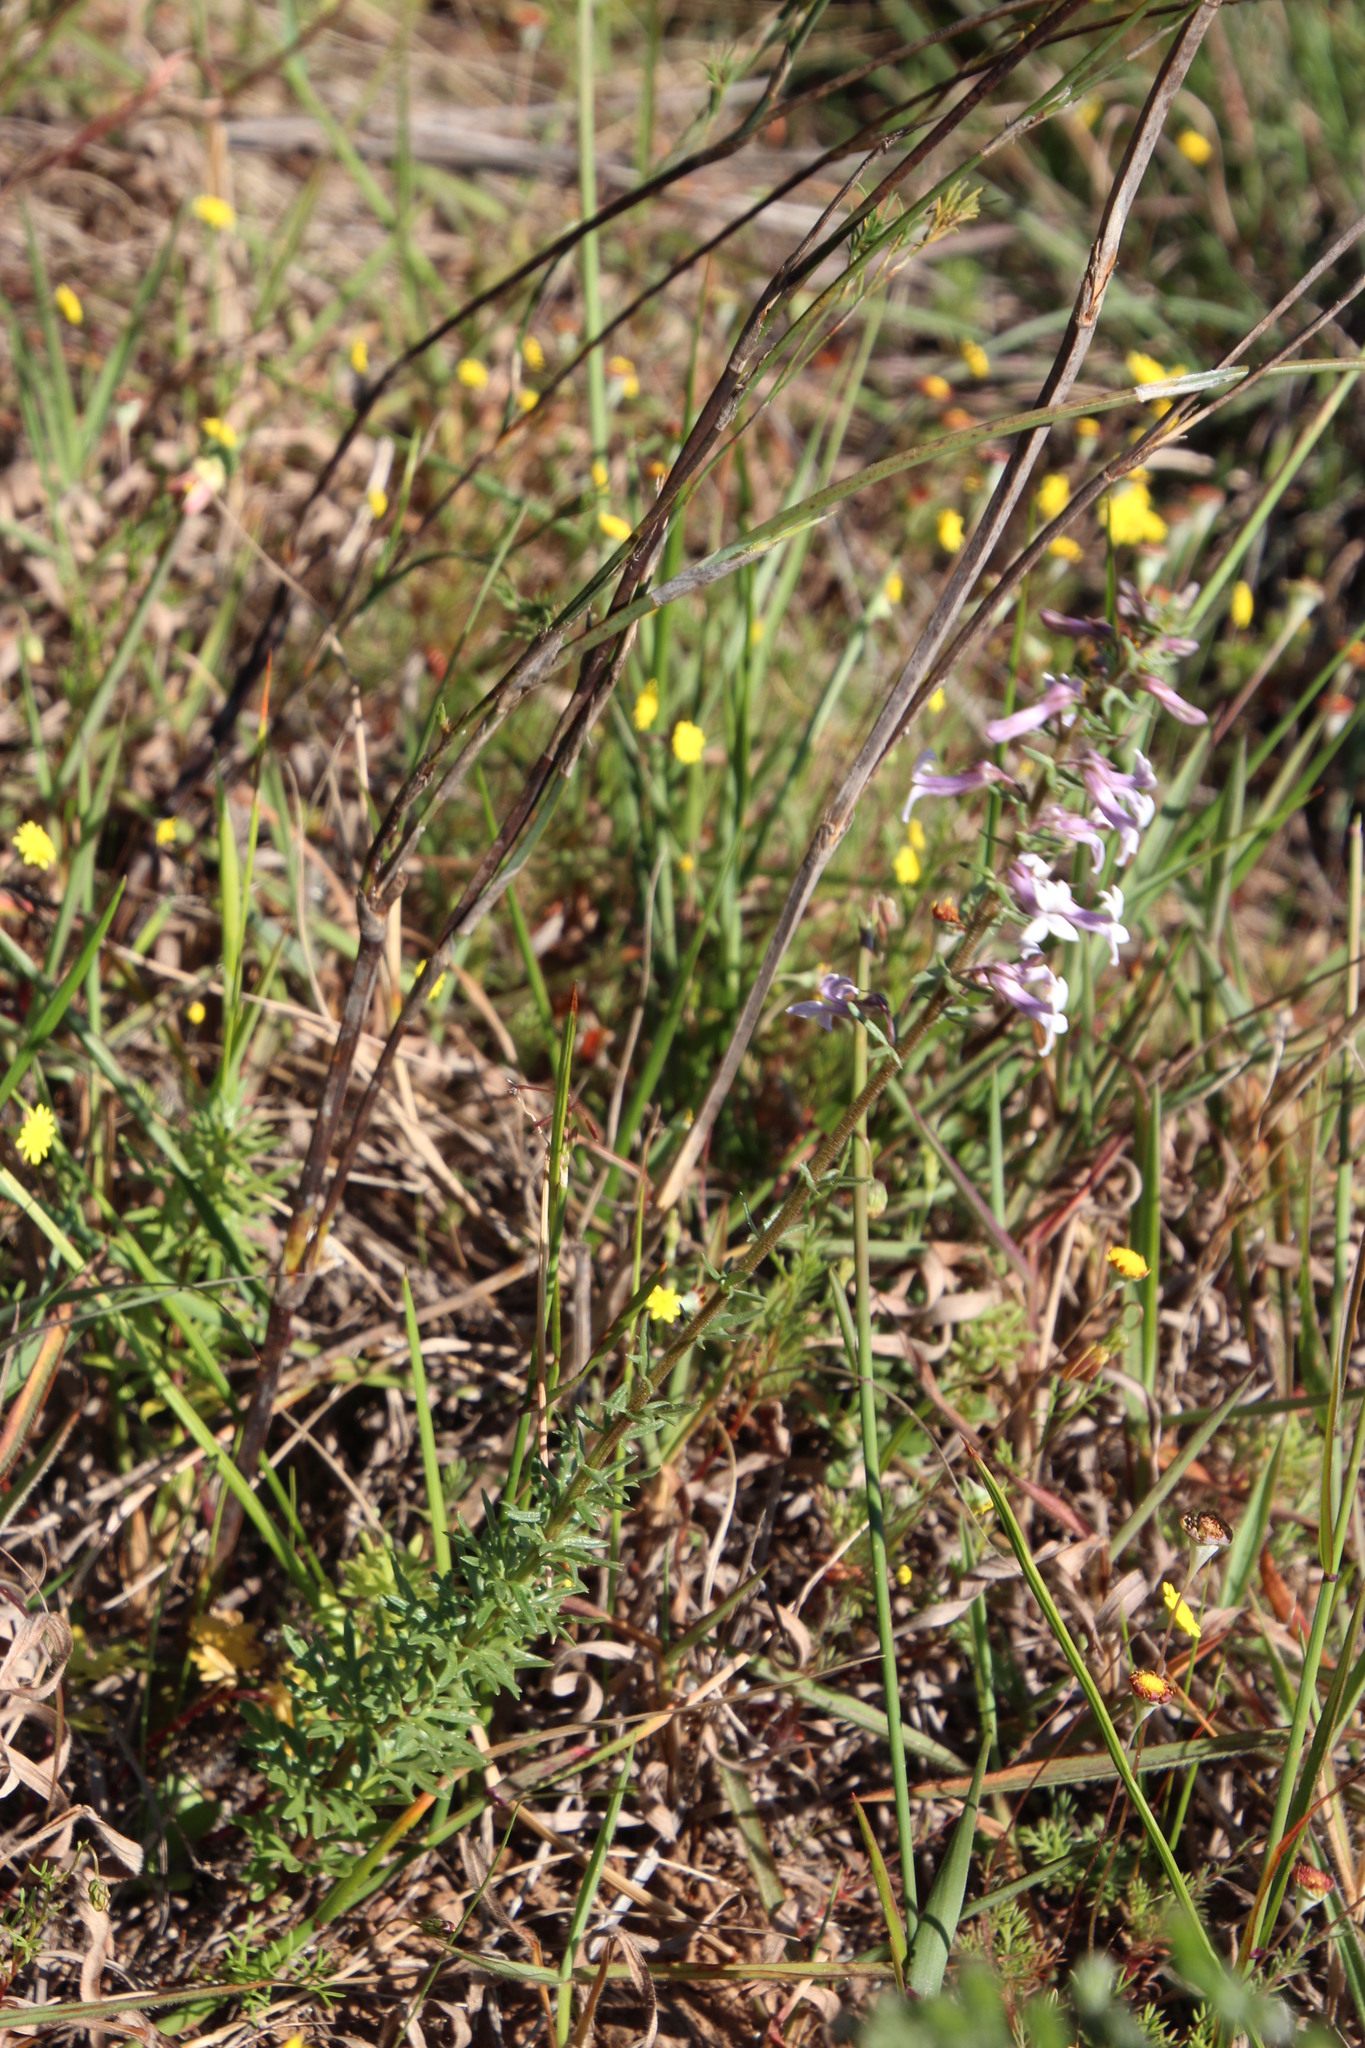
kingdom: Plantae
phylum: Tracheophyta
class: Magnoliopsida
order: Asterales
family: Campanulaceae
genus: Cyphia
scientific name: Cyphia bulbosa
